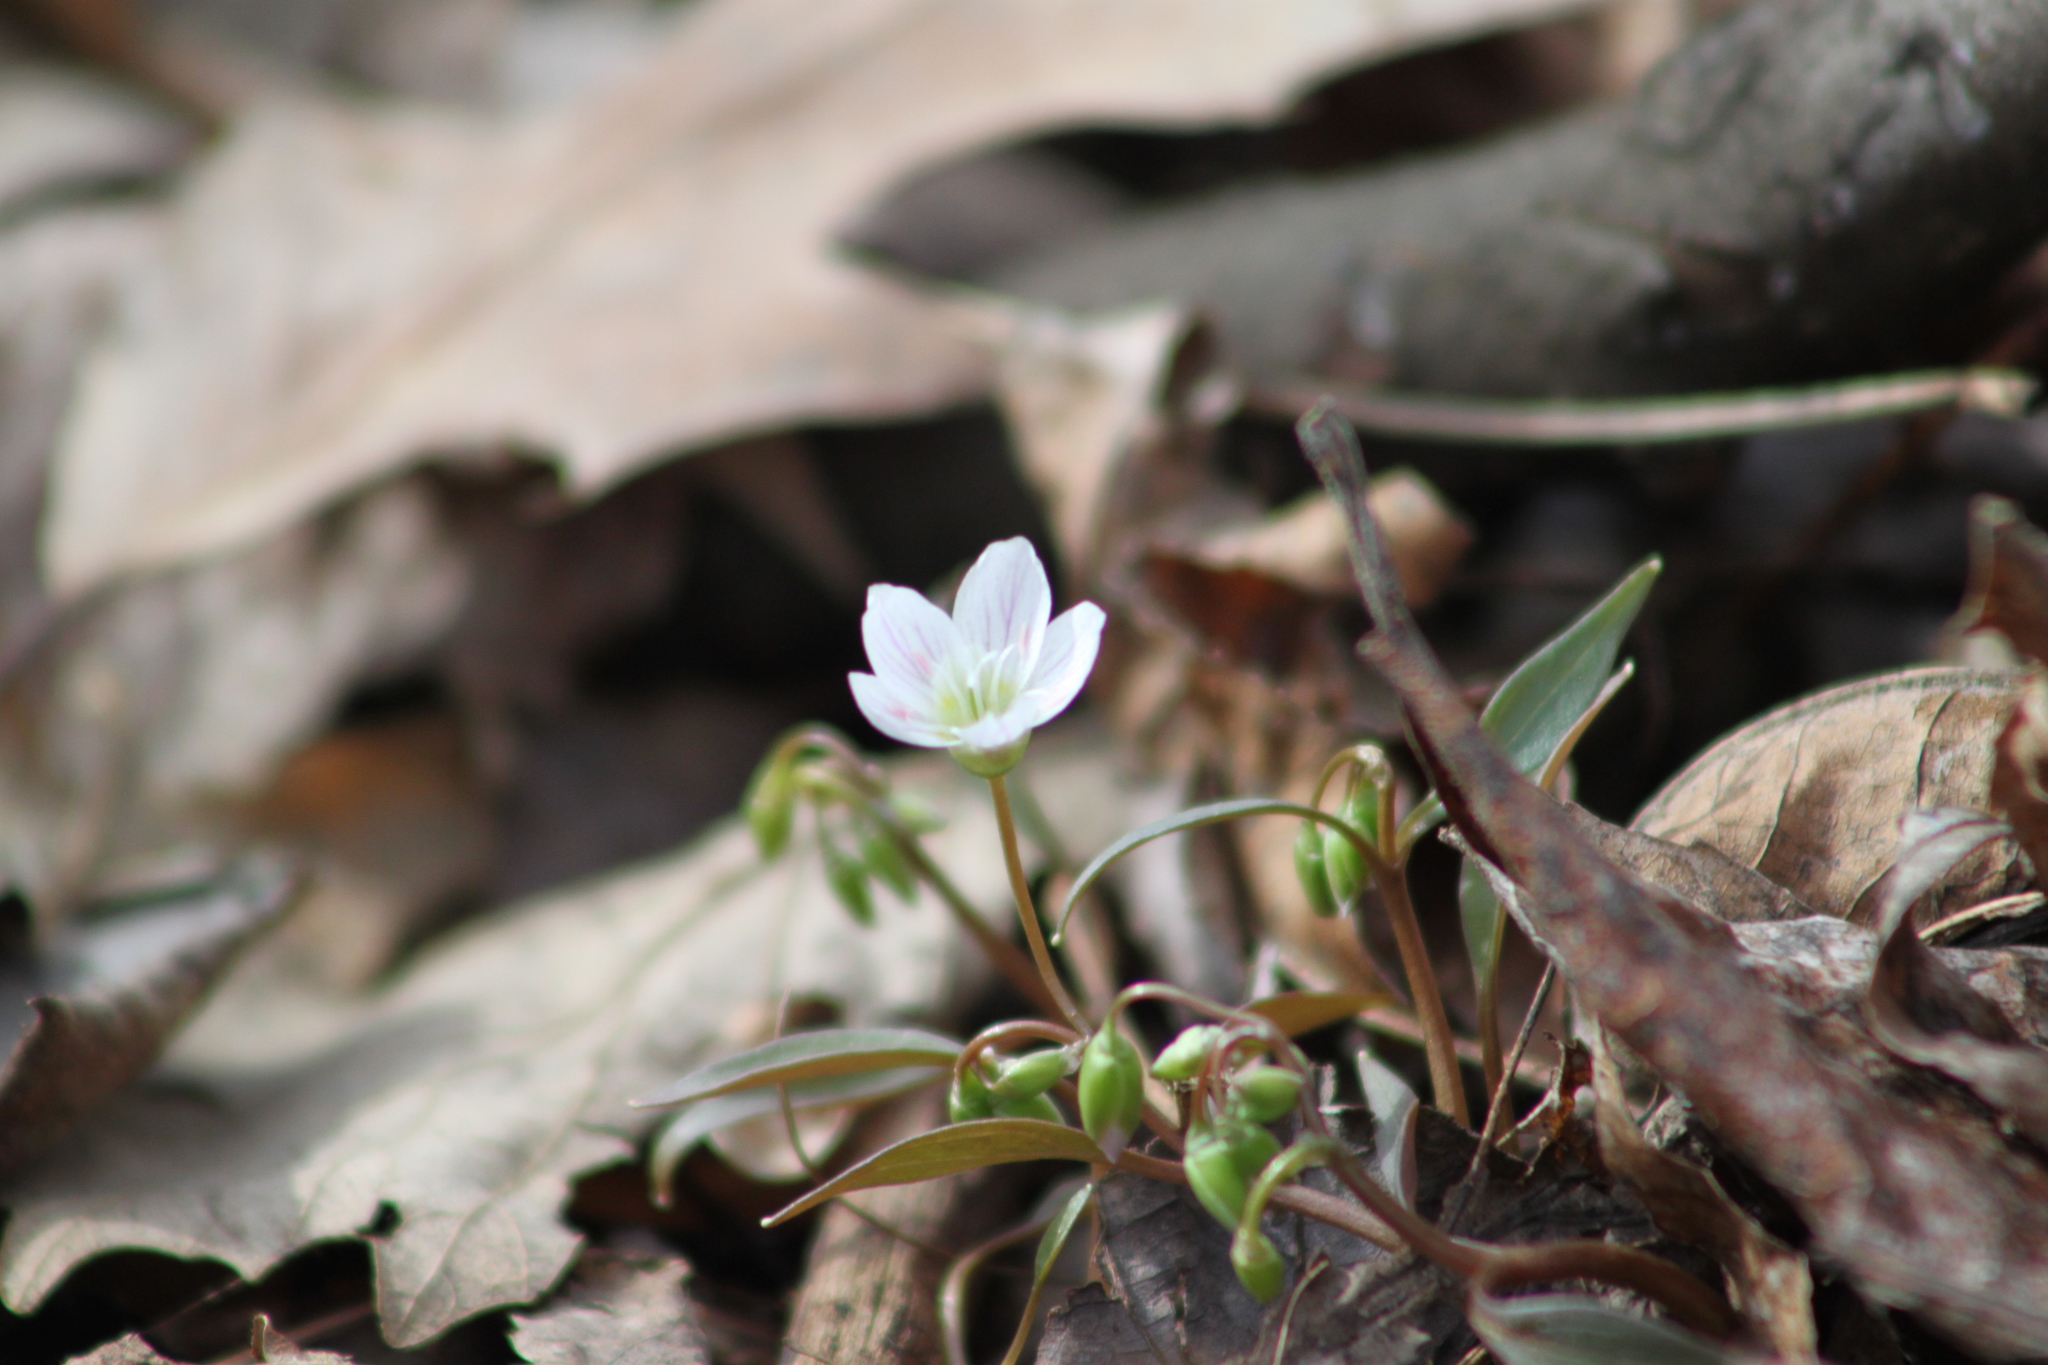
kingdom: Plantae
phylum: Tracheophyta
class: Magnoliopsida
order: Caryophyllales
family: Montiaceae
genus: Claytonia
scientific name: Claytonia caroliniana
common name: Carolina spring beauty
